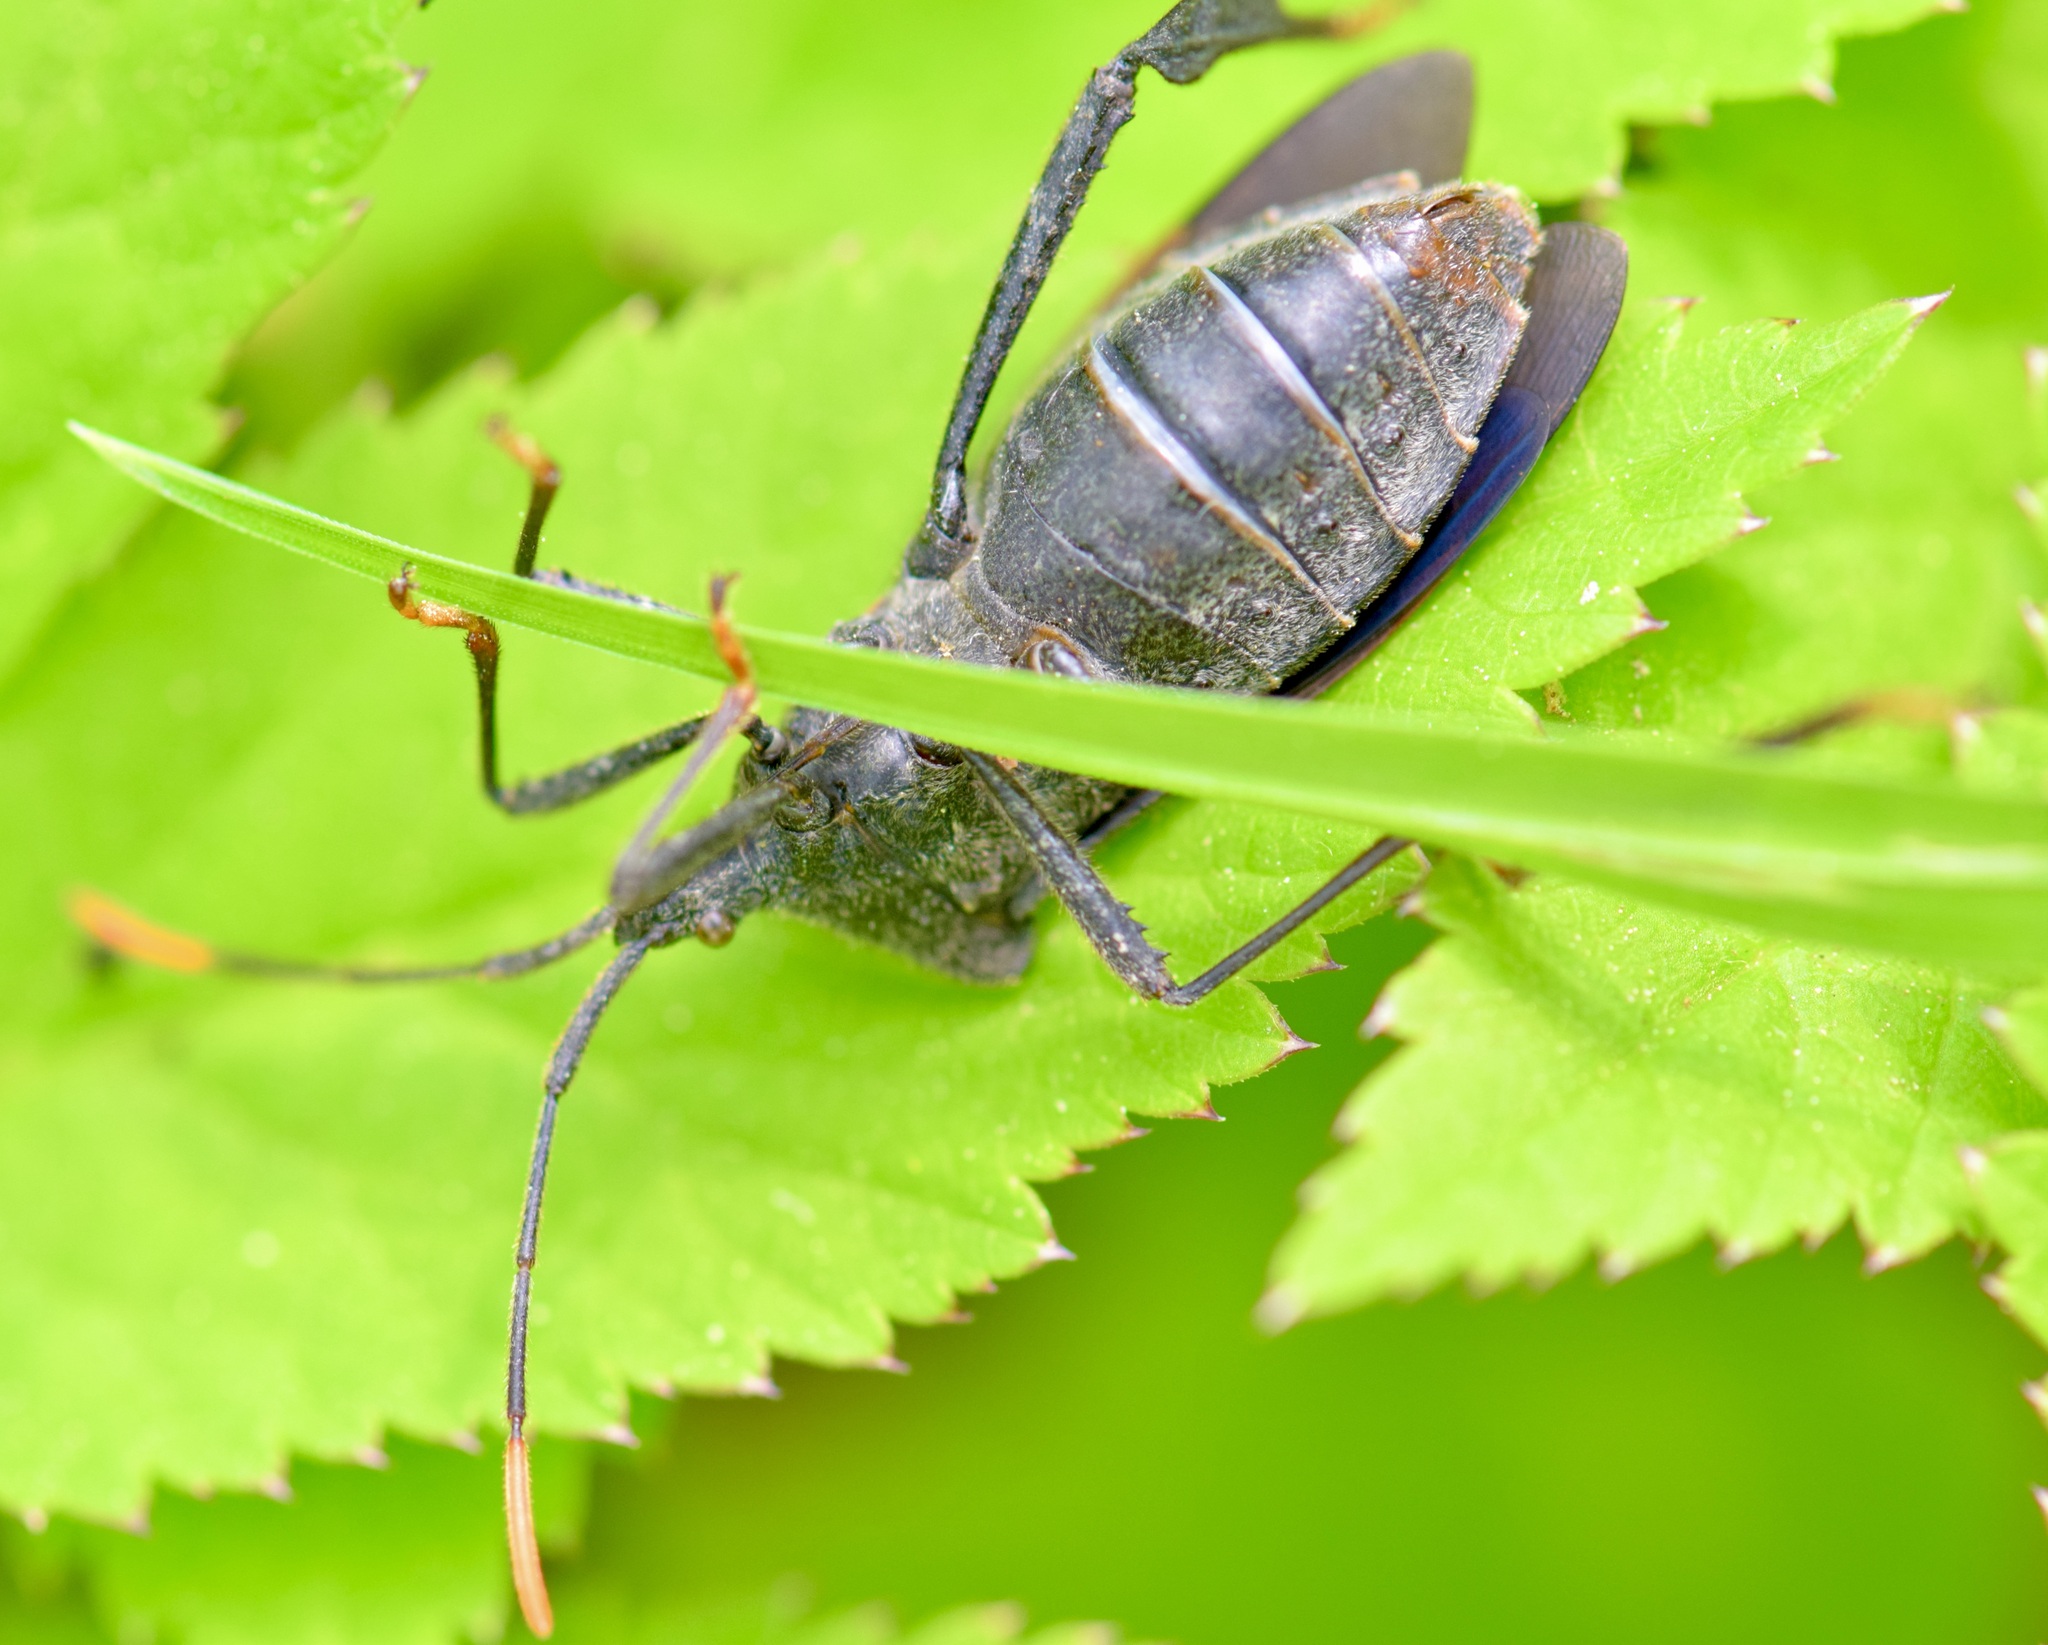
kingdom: Animalia
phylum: Arthropoda
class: Insecta
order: Hemiptera
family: Coreidae
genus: Acanthocephala
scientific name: Acanthocephala terminalis
